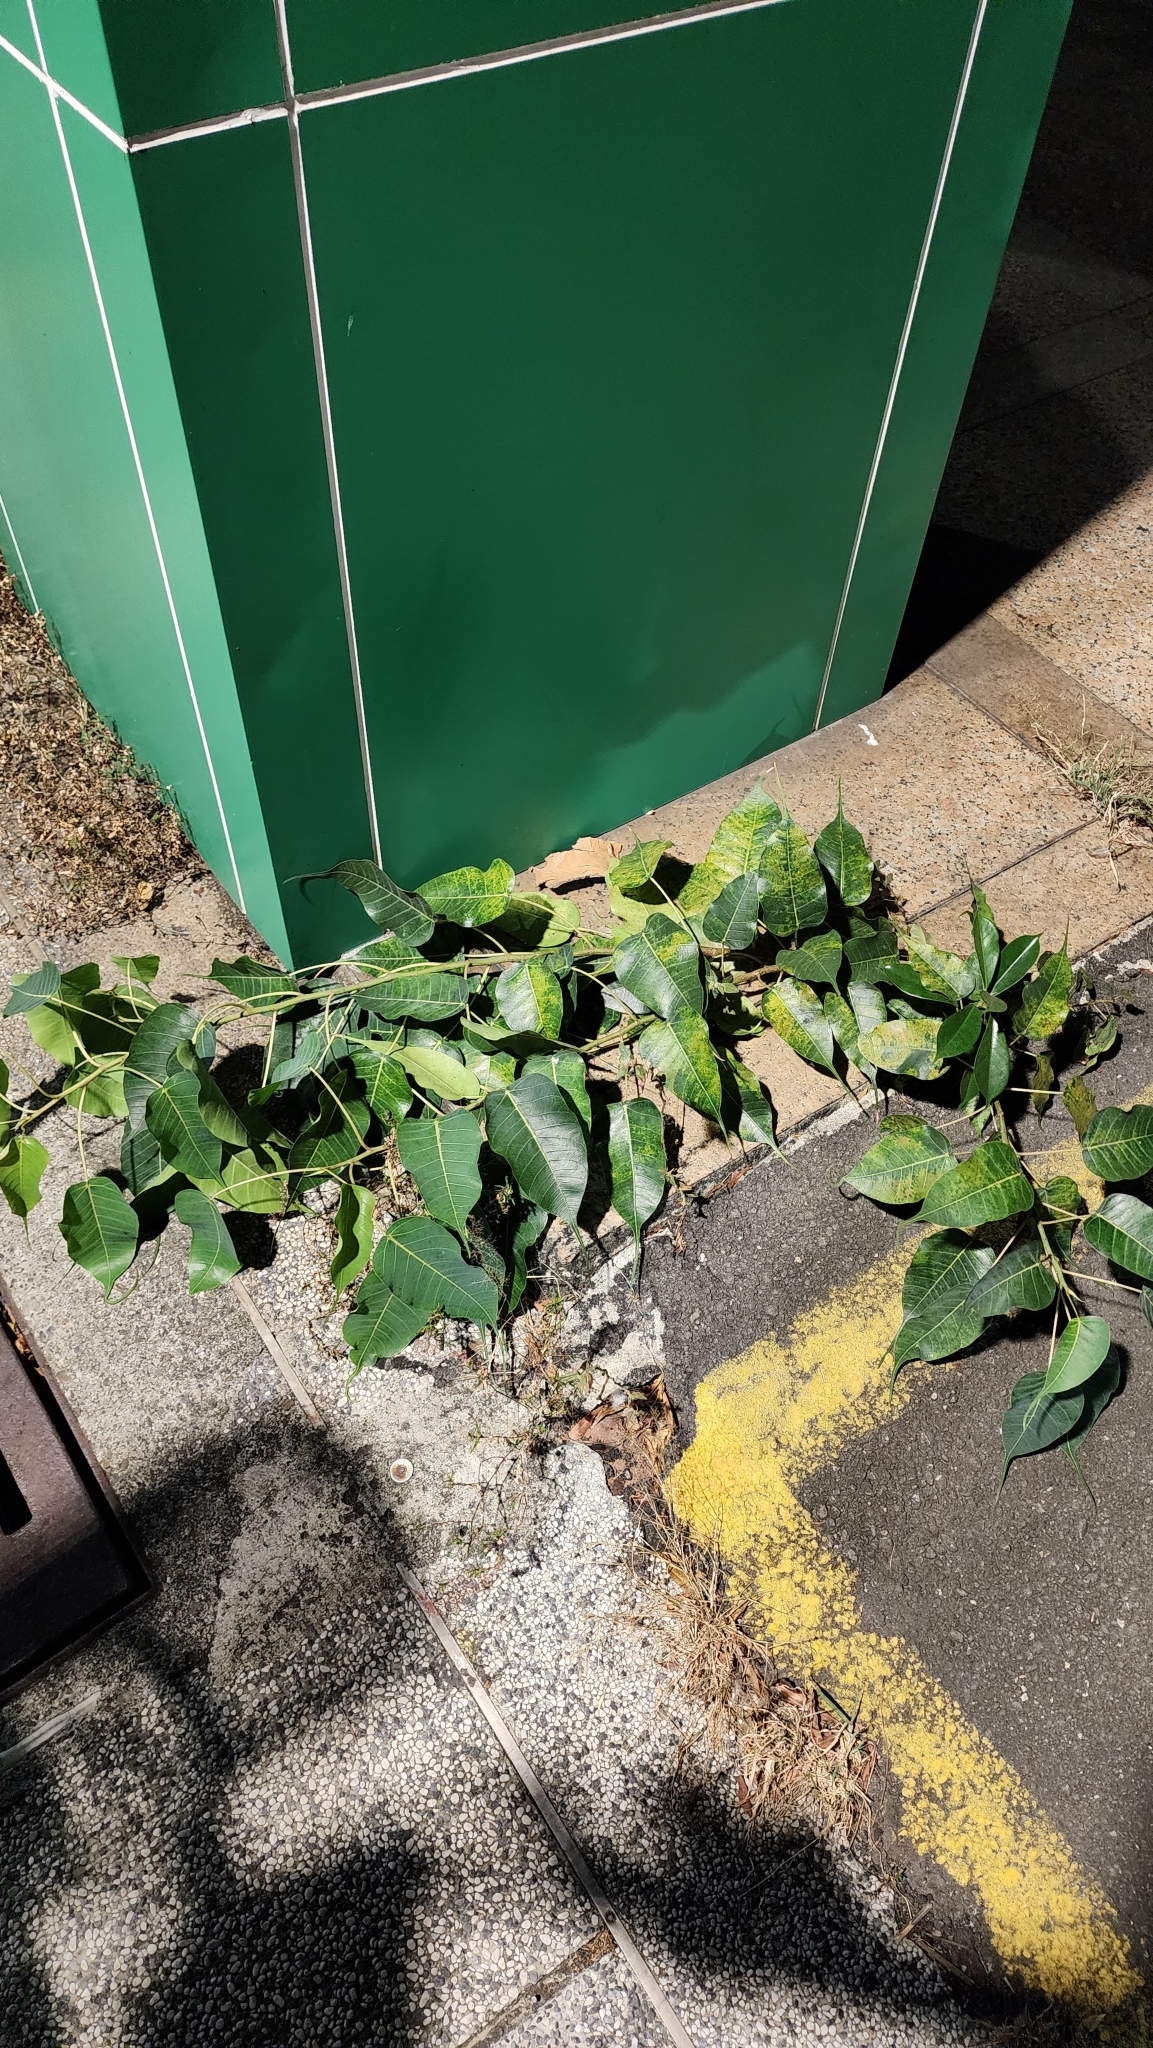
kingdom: Plantae
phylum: Tracheophyta
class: Magnoliopsida
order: Rosales
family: Moraceae
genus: Ficus
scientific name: Ficus religiosa
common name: Bodhi tree
